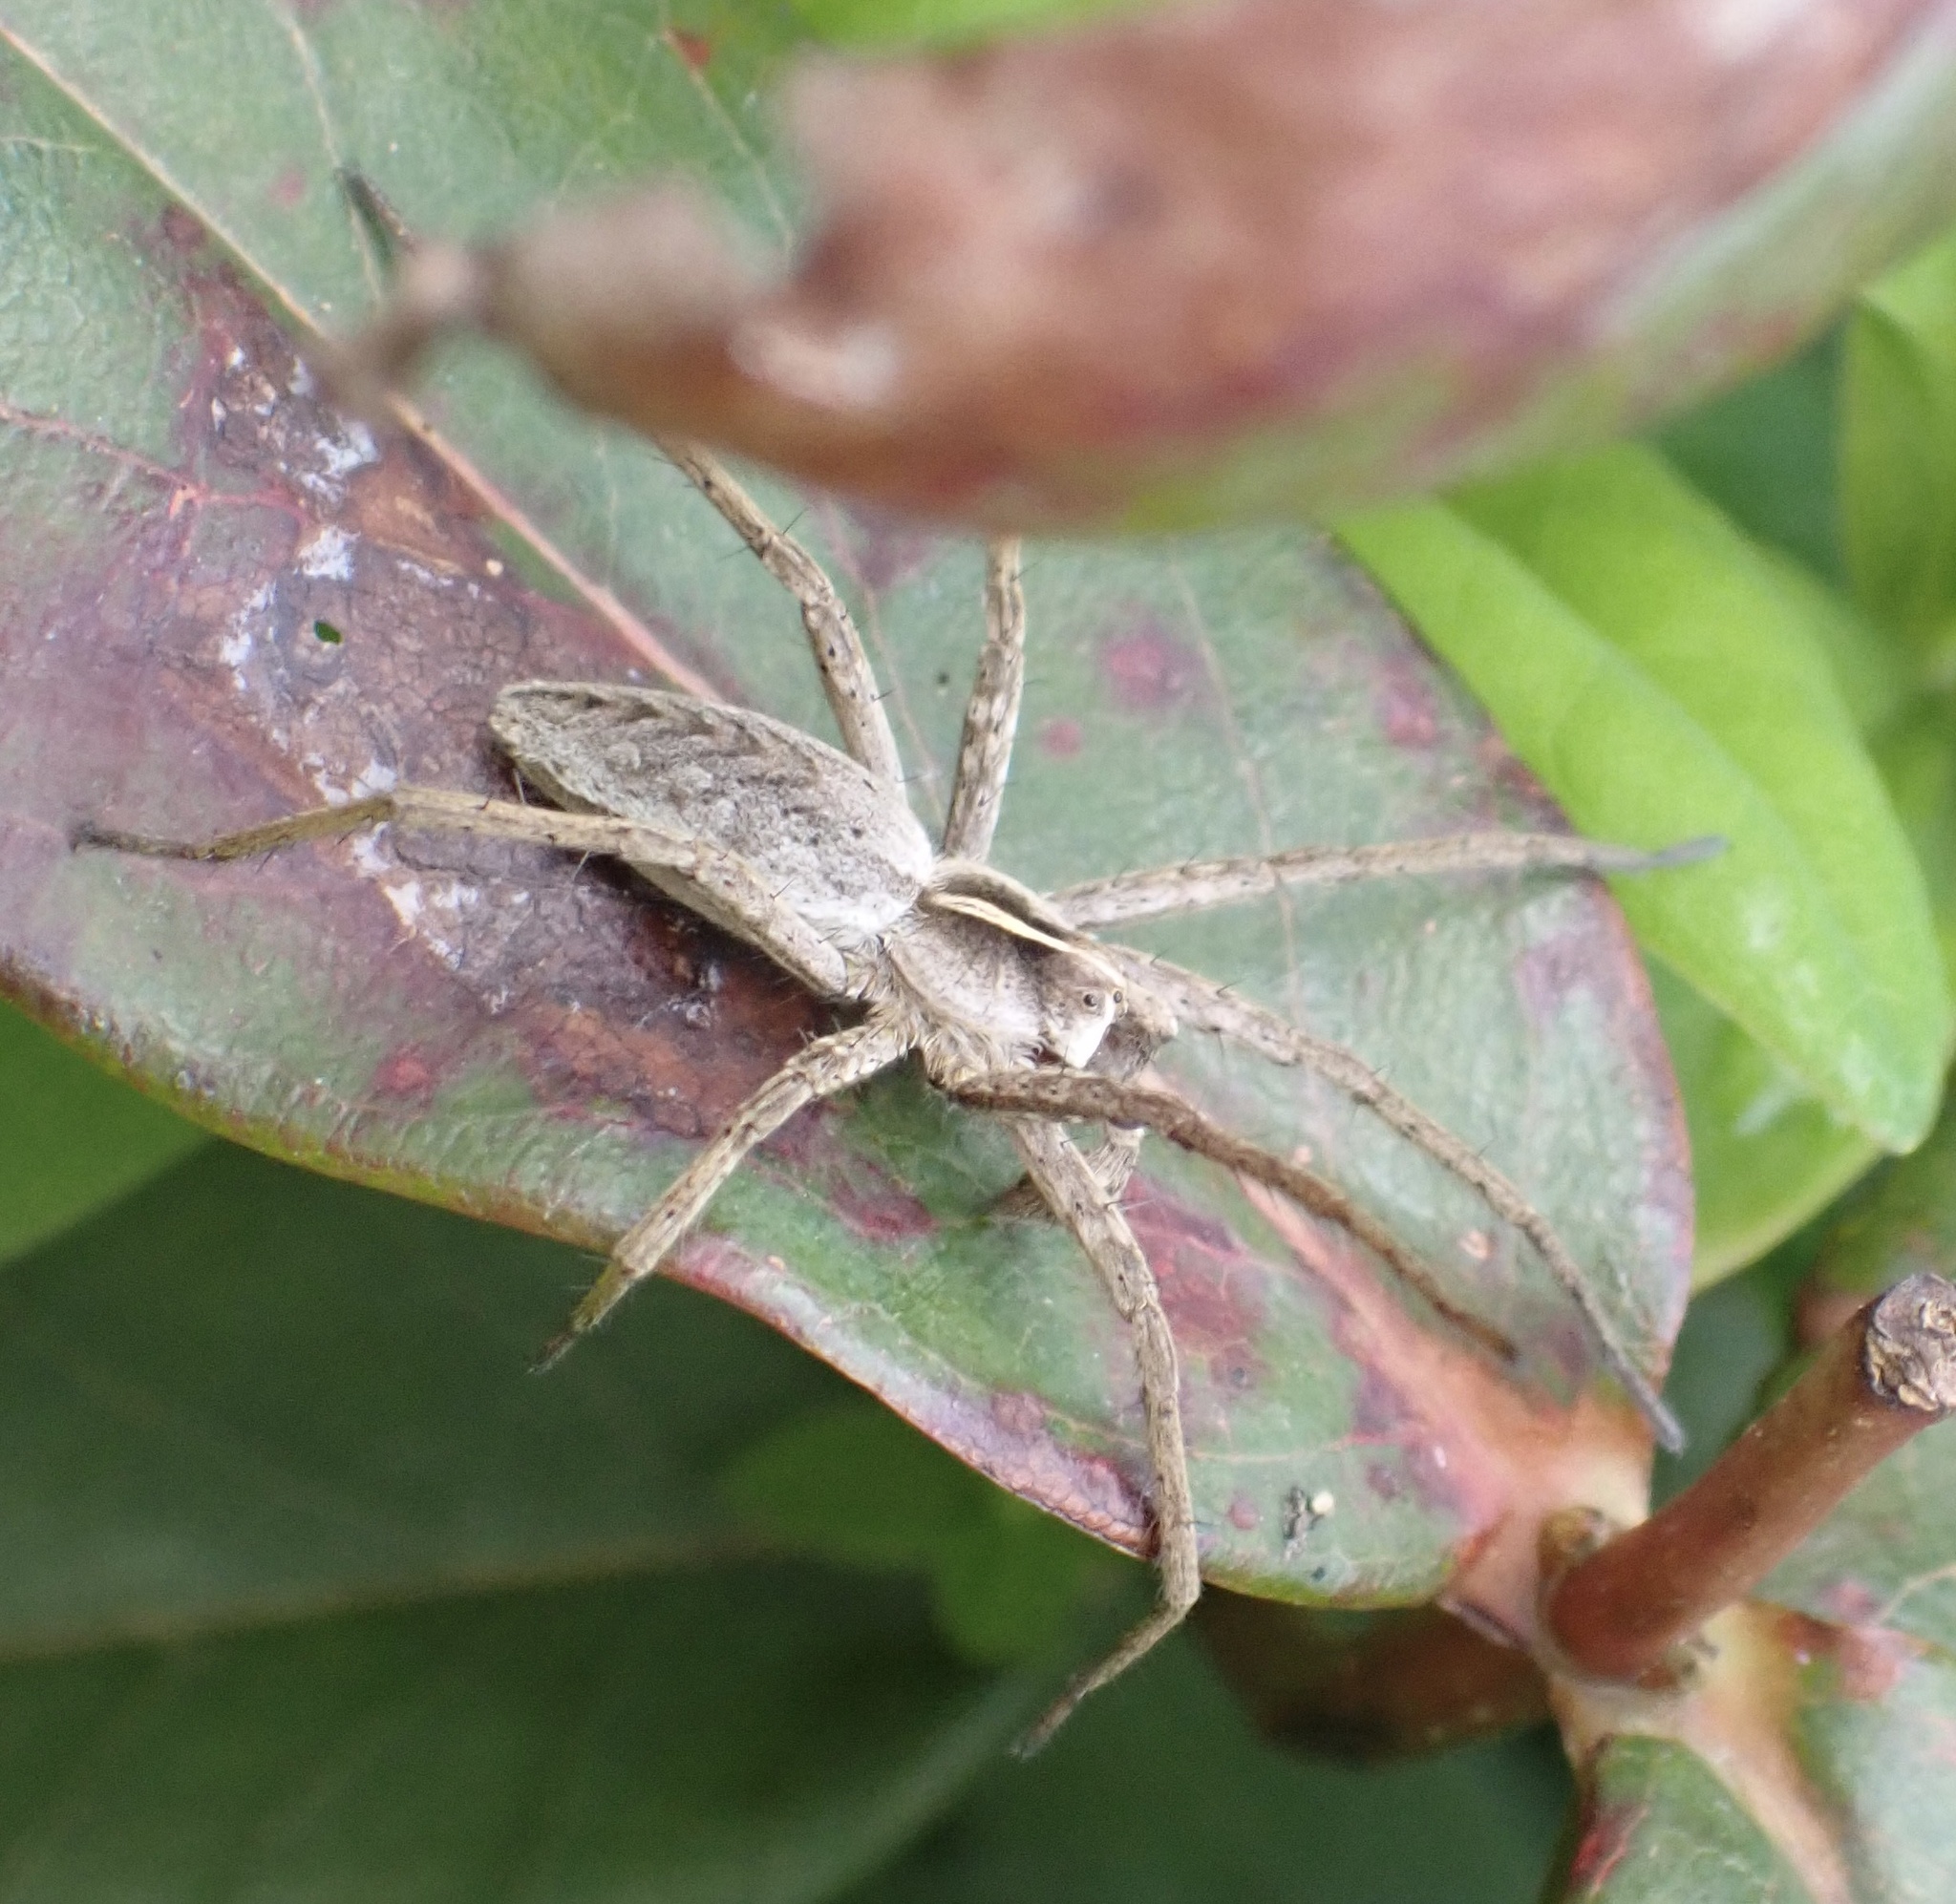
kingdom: Animalia
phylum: Arthropoda
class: Arachnida
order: Araneae
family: Pisauridae
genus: Pisaura
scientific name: Pisaura mirabilis
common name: Tent spider
